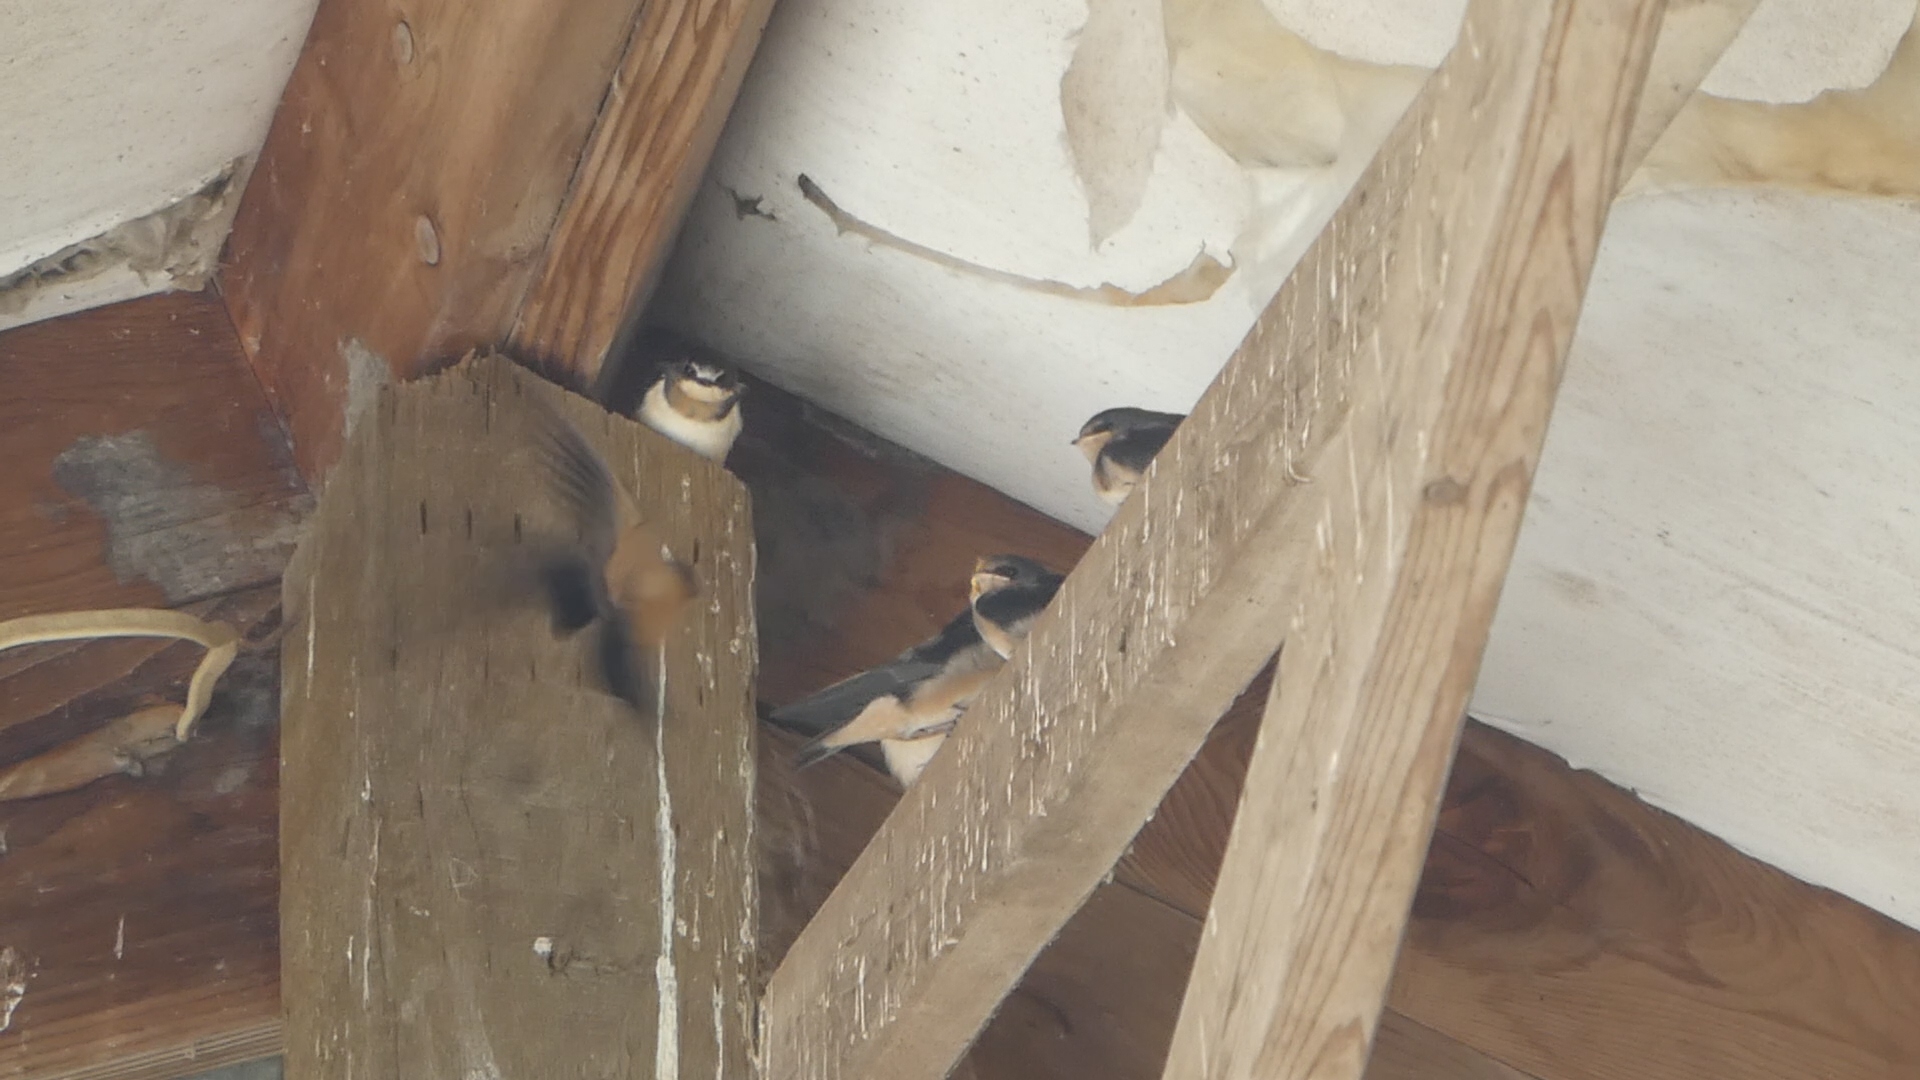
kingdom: Animalia
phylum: Chordata
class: Aves
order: Passeriformes
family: Hirundinidae
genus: Hirundo
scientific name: Hirundo rustica
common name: Barn swallow
